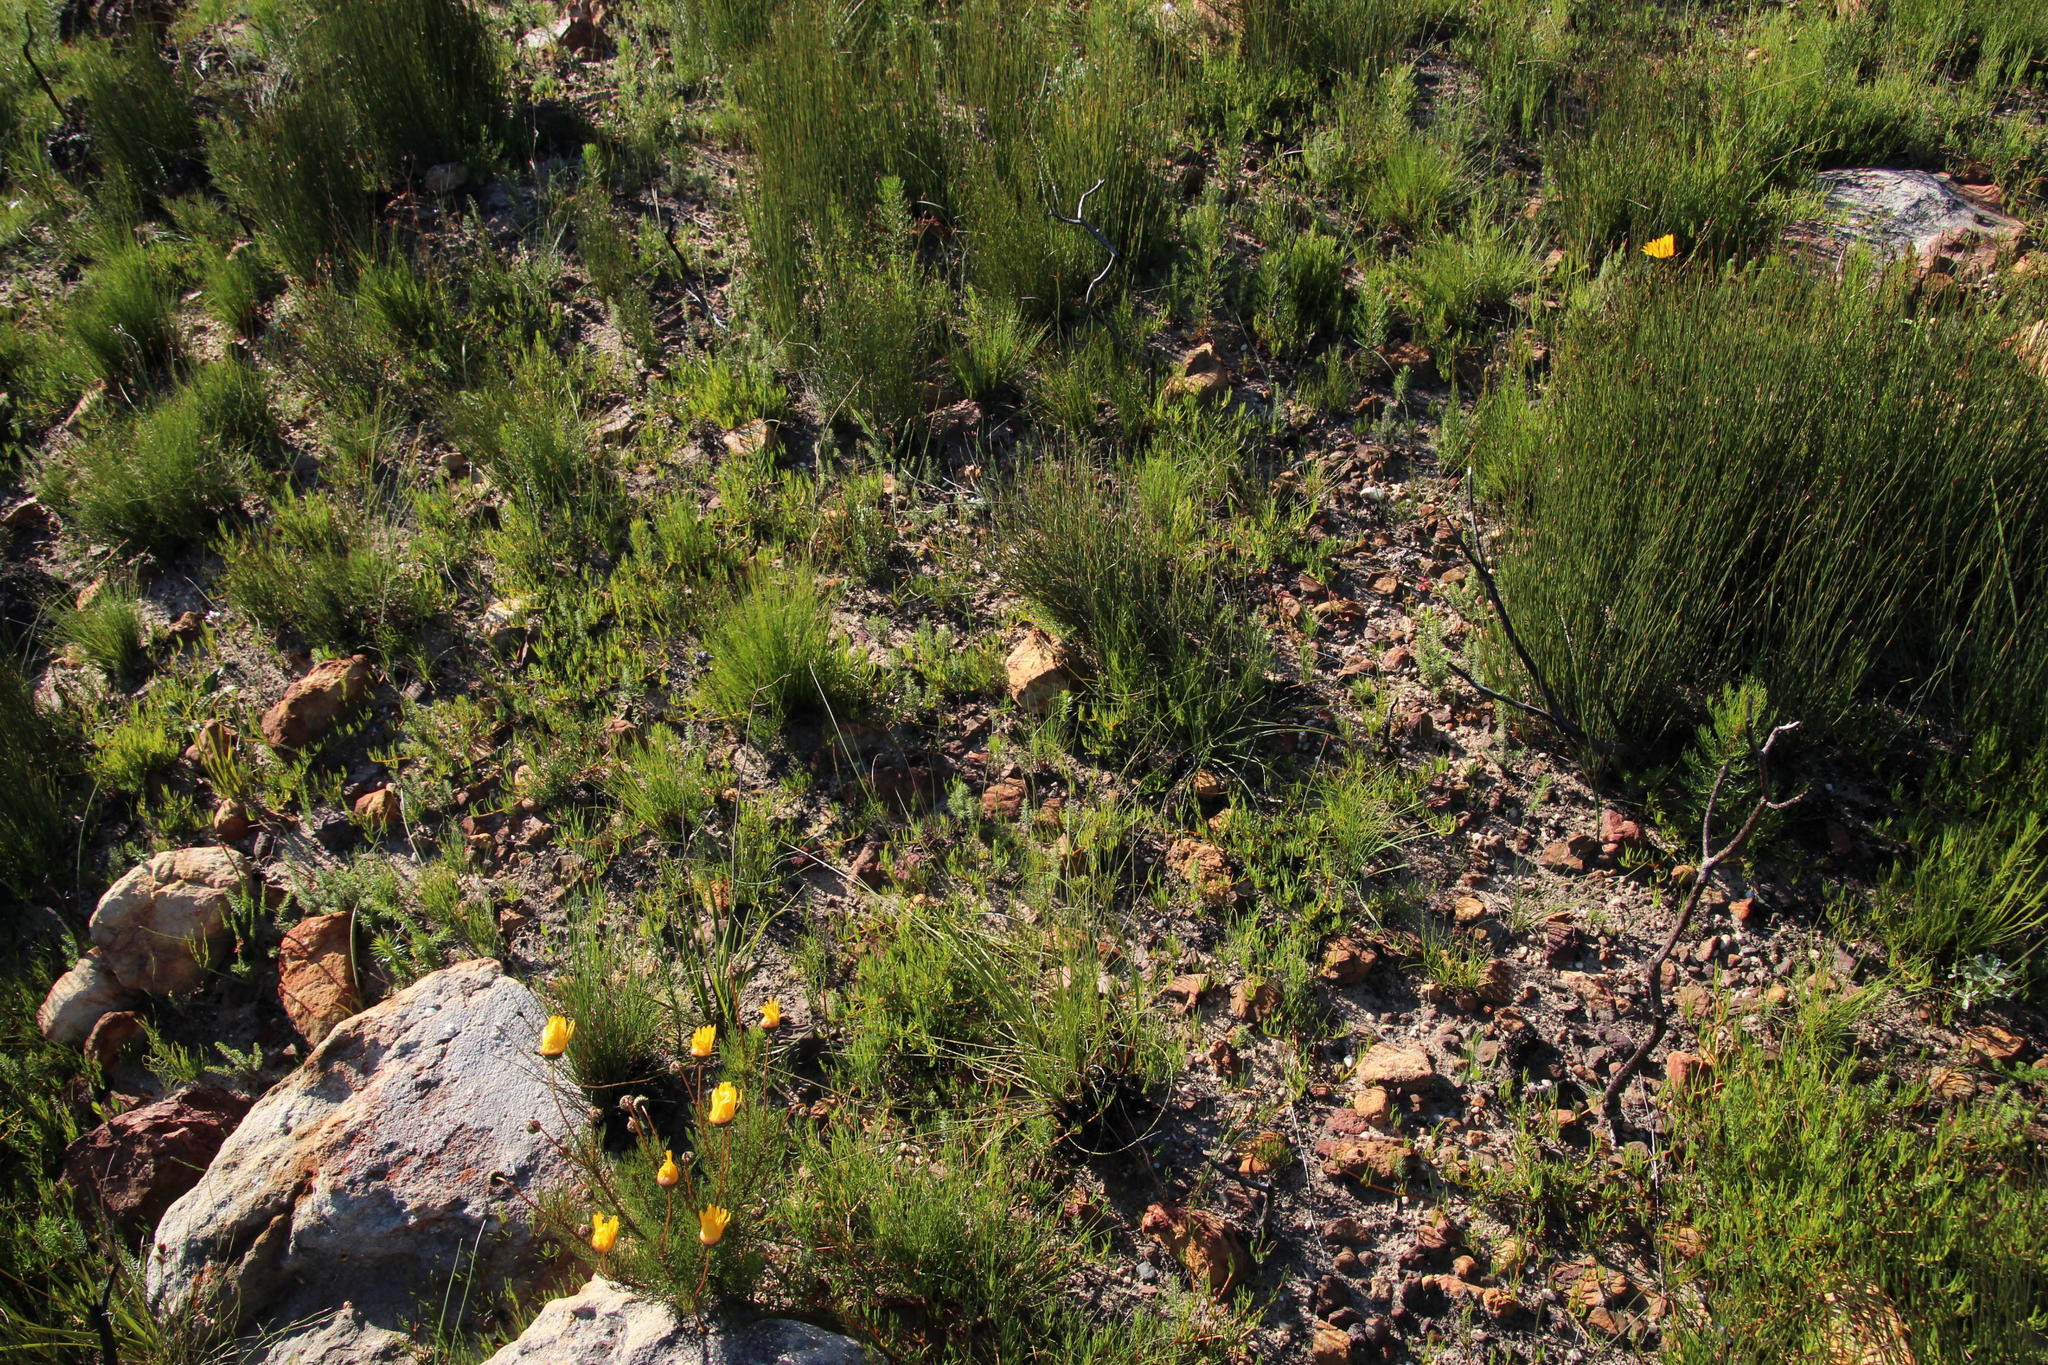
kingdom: Plantae
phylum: Tracheophyta
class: Magnoliopsida
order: Caryophyllales
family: Aizoaceae
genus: Acrosanthes
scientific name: Acrosanthes teretifolia
